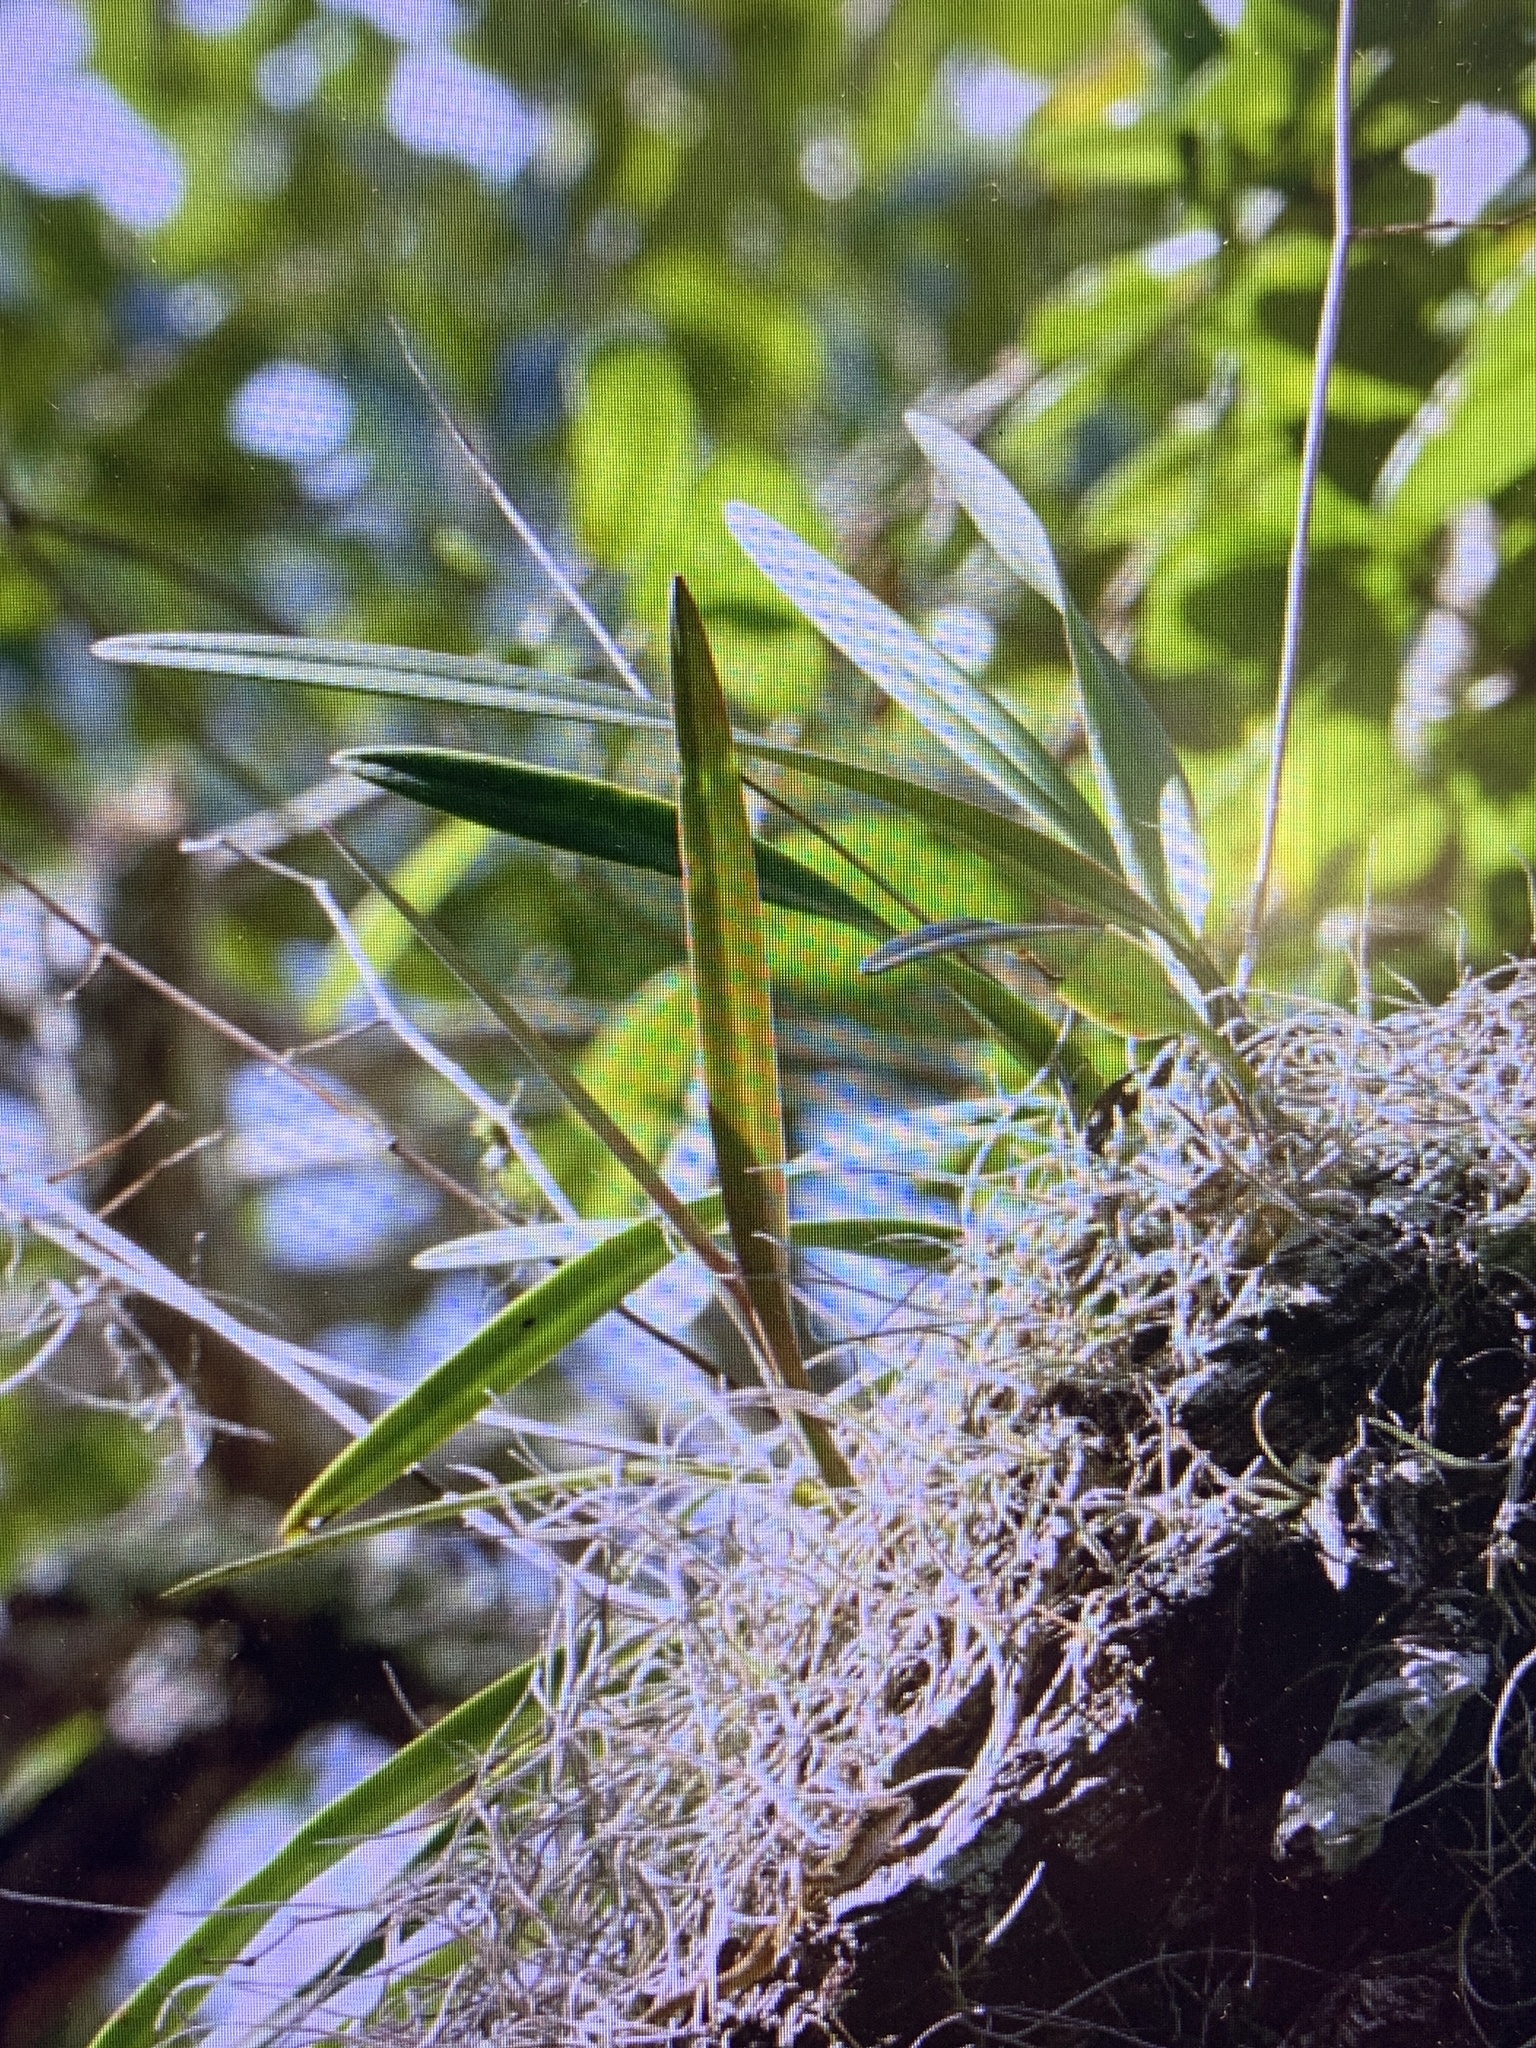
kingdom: Plantae
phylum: Tracheophyta
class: Liliopsida
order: Asparagales
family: Orchidaceae
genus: Encyclia
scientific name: Encyclia tampensis
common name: Florida butterfly orchid
